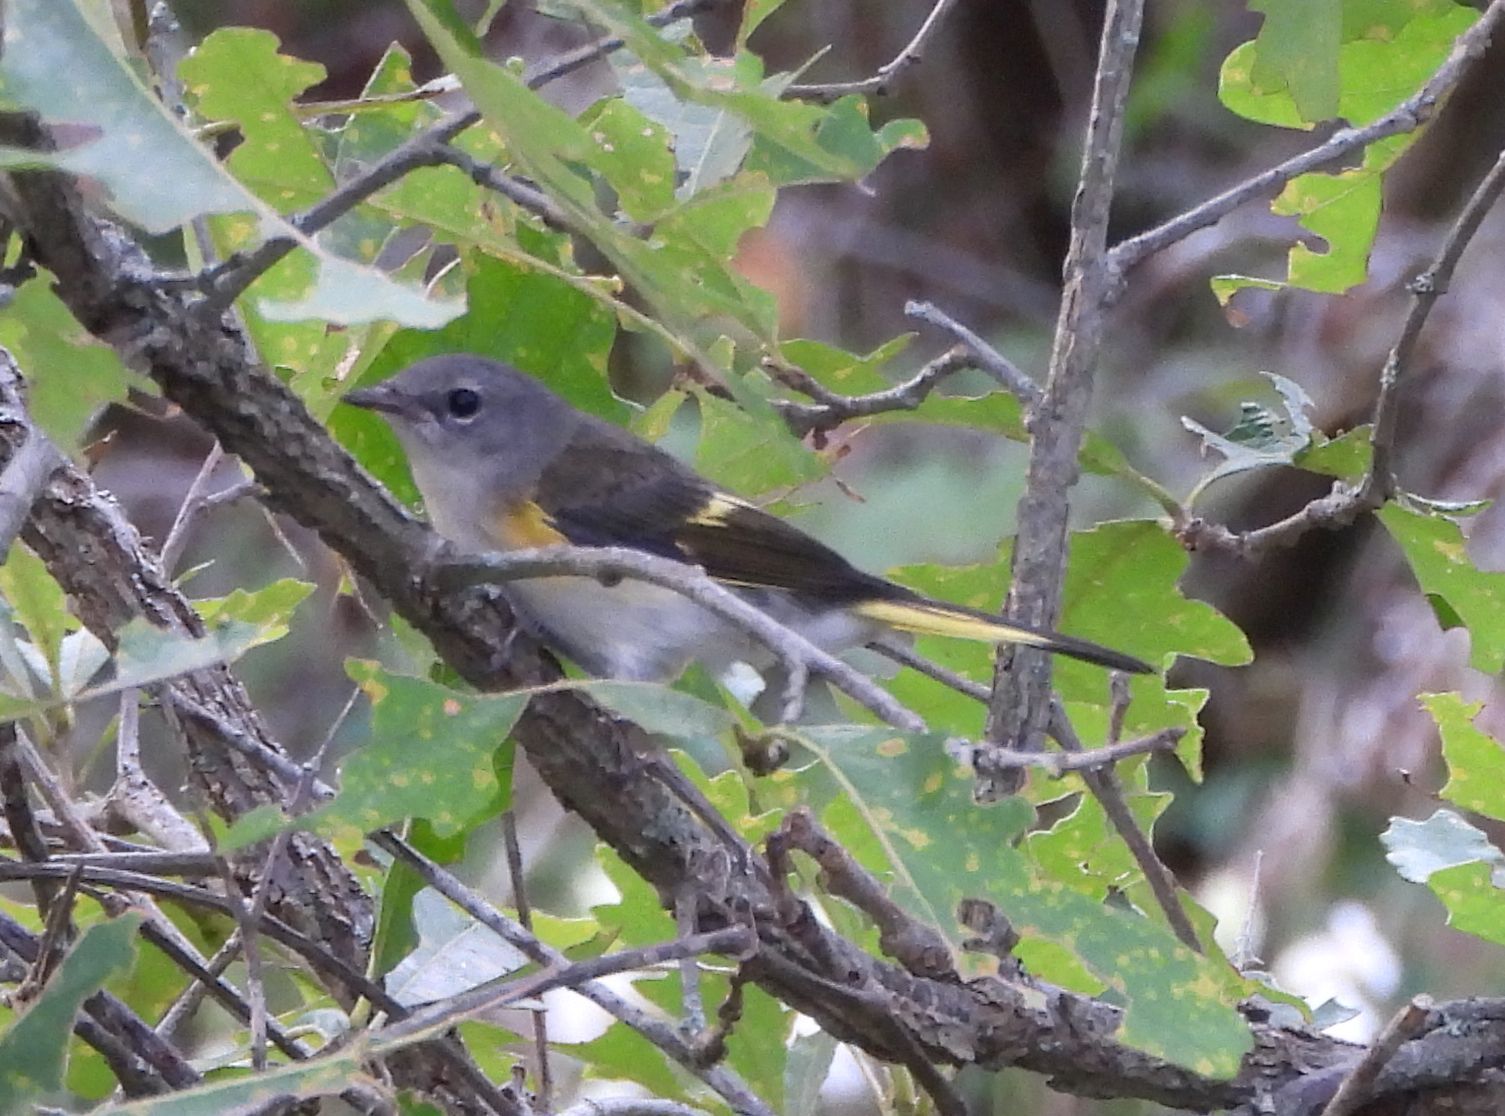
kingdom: Animalia
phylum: Chordata
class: Aves
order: Passeriformes
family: Parulidae
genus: Setophaga
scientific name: Setophaga ruticilla
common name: American redstart
